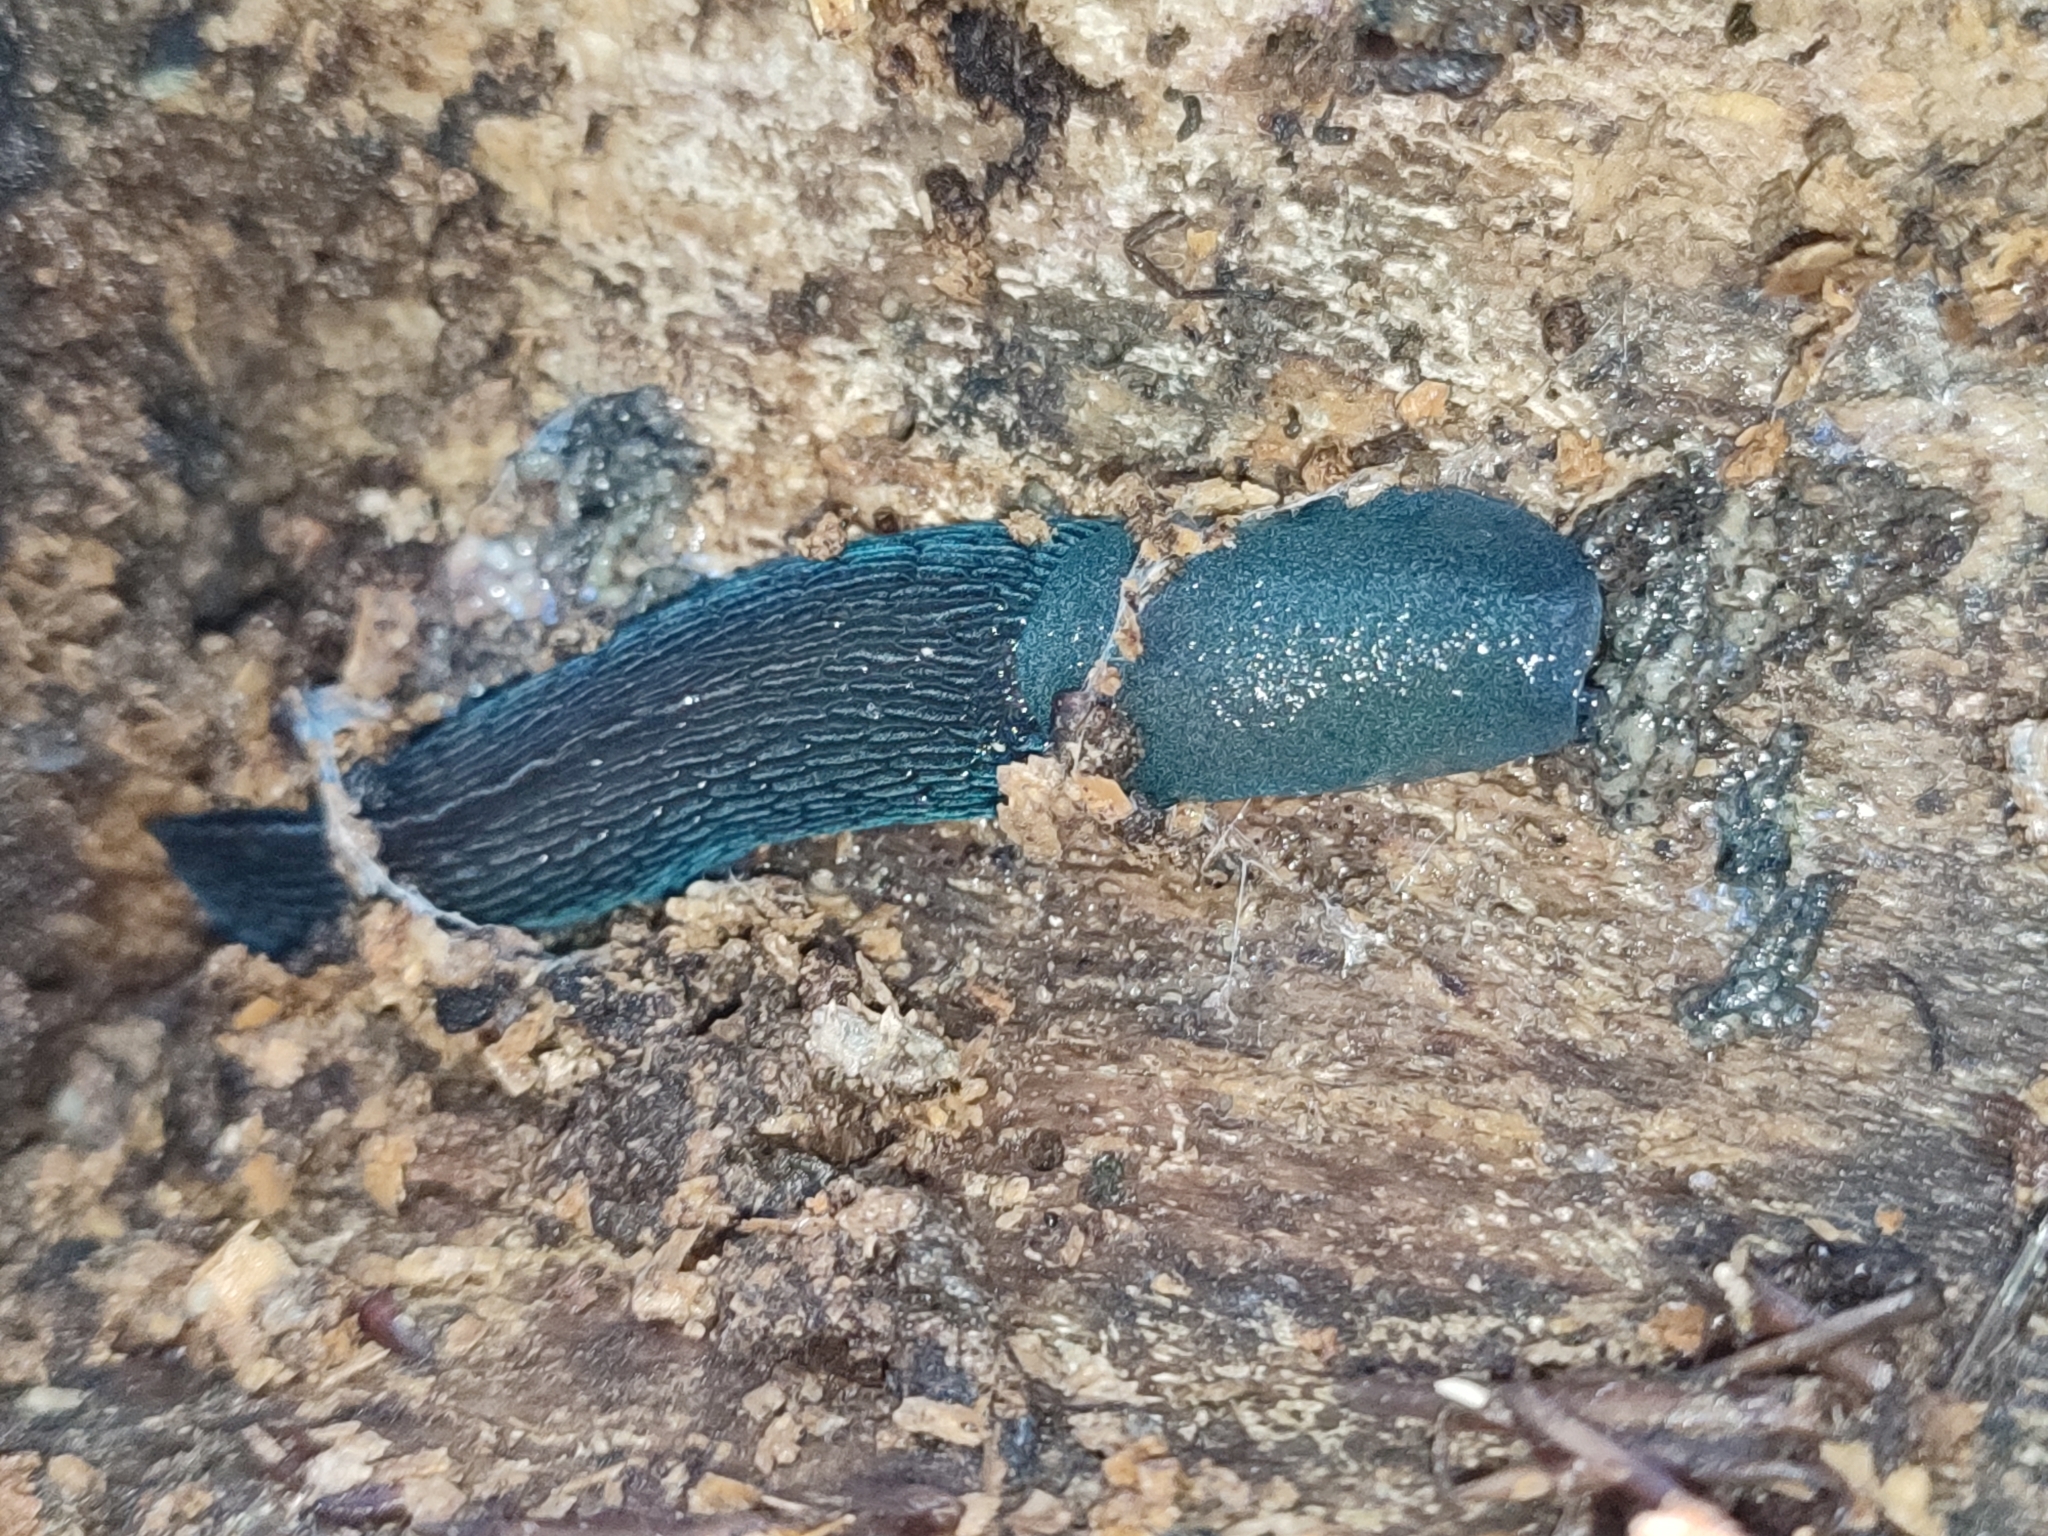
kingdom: Animalia
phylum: Mollusca
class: Gastropoda
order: Stylommatophora
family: Limacidae
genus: Bielzia
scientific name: Bielzia coerulans
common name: Carpathian blue slug
